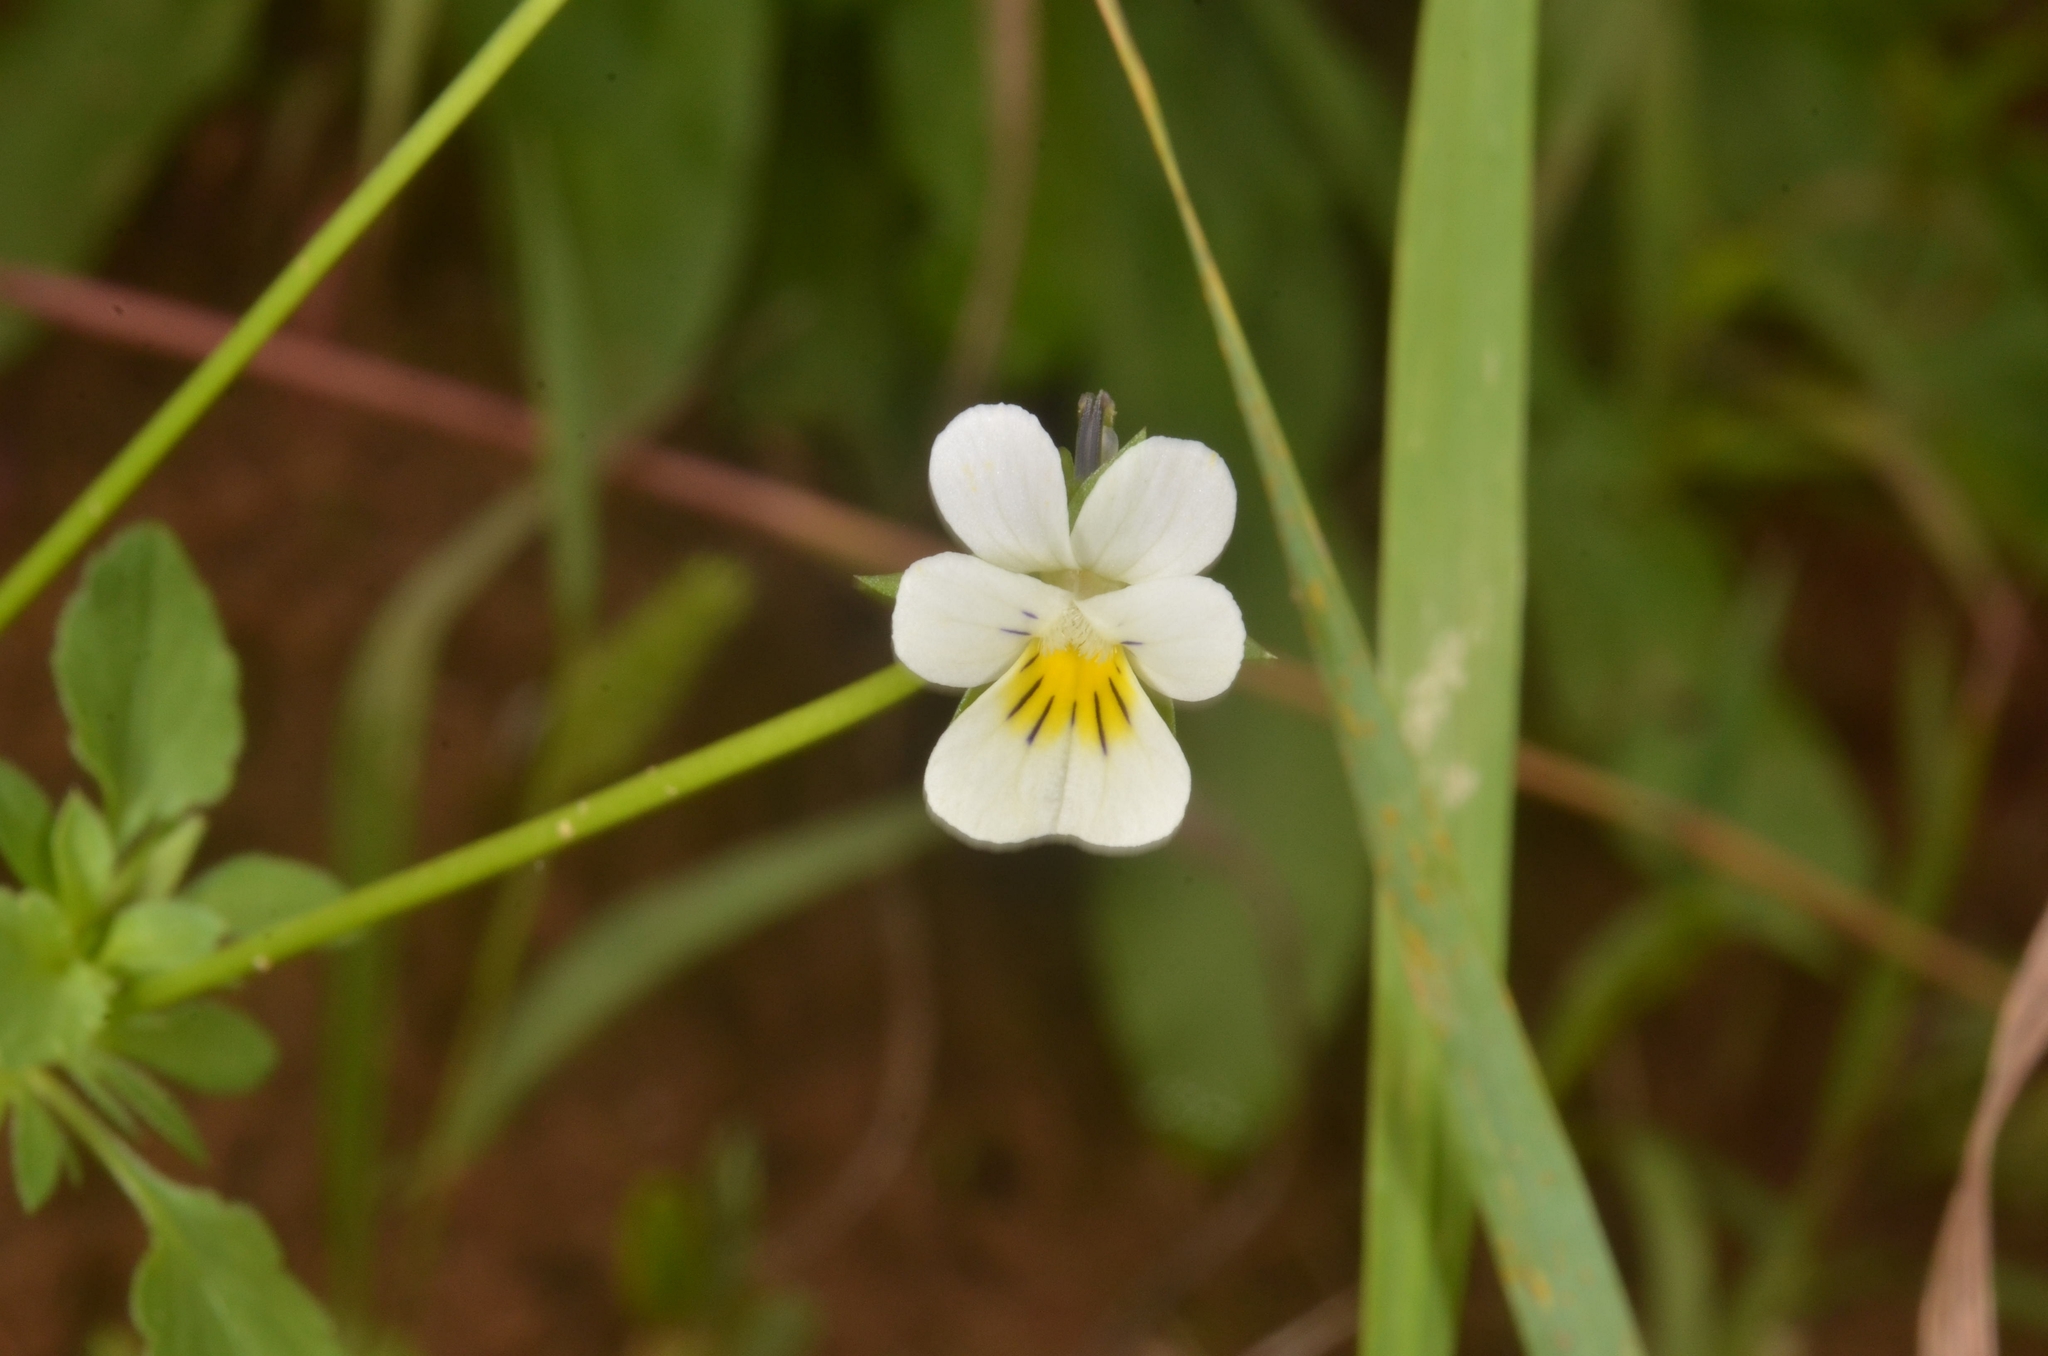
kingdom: Plantae
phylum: Tracheophyta
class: Magnoliopsida
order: Malpighiales
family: Violaceae
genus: Viola
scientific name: Viola arvensis
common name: Field pansy
